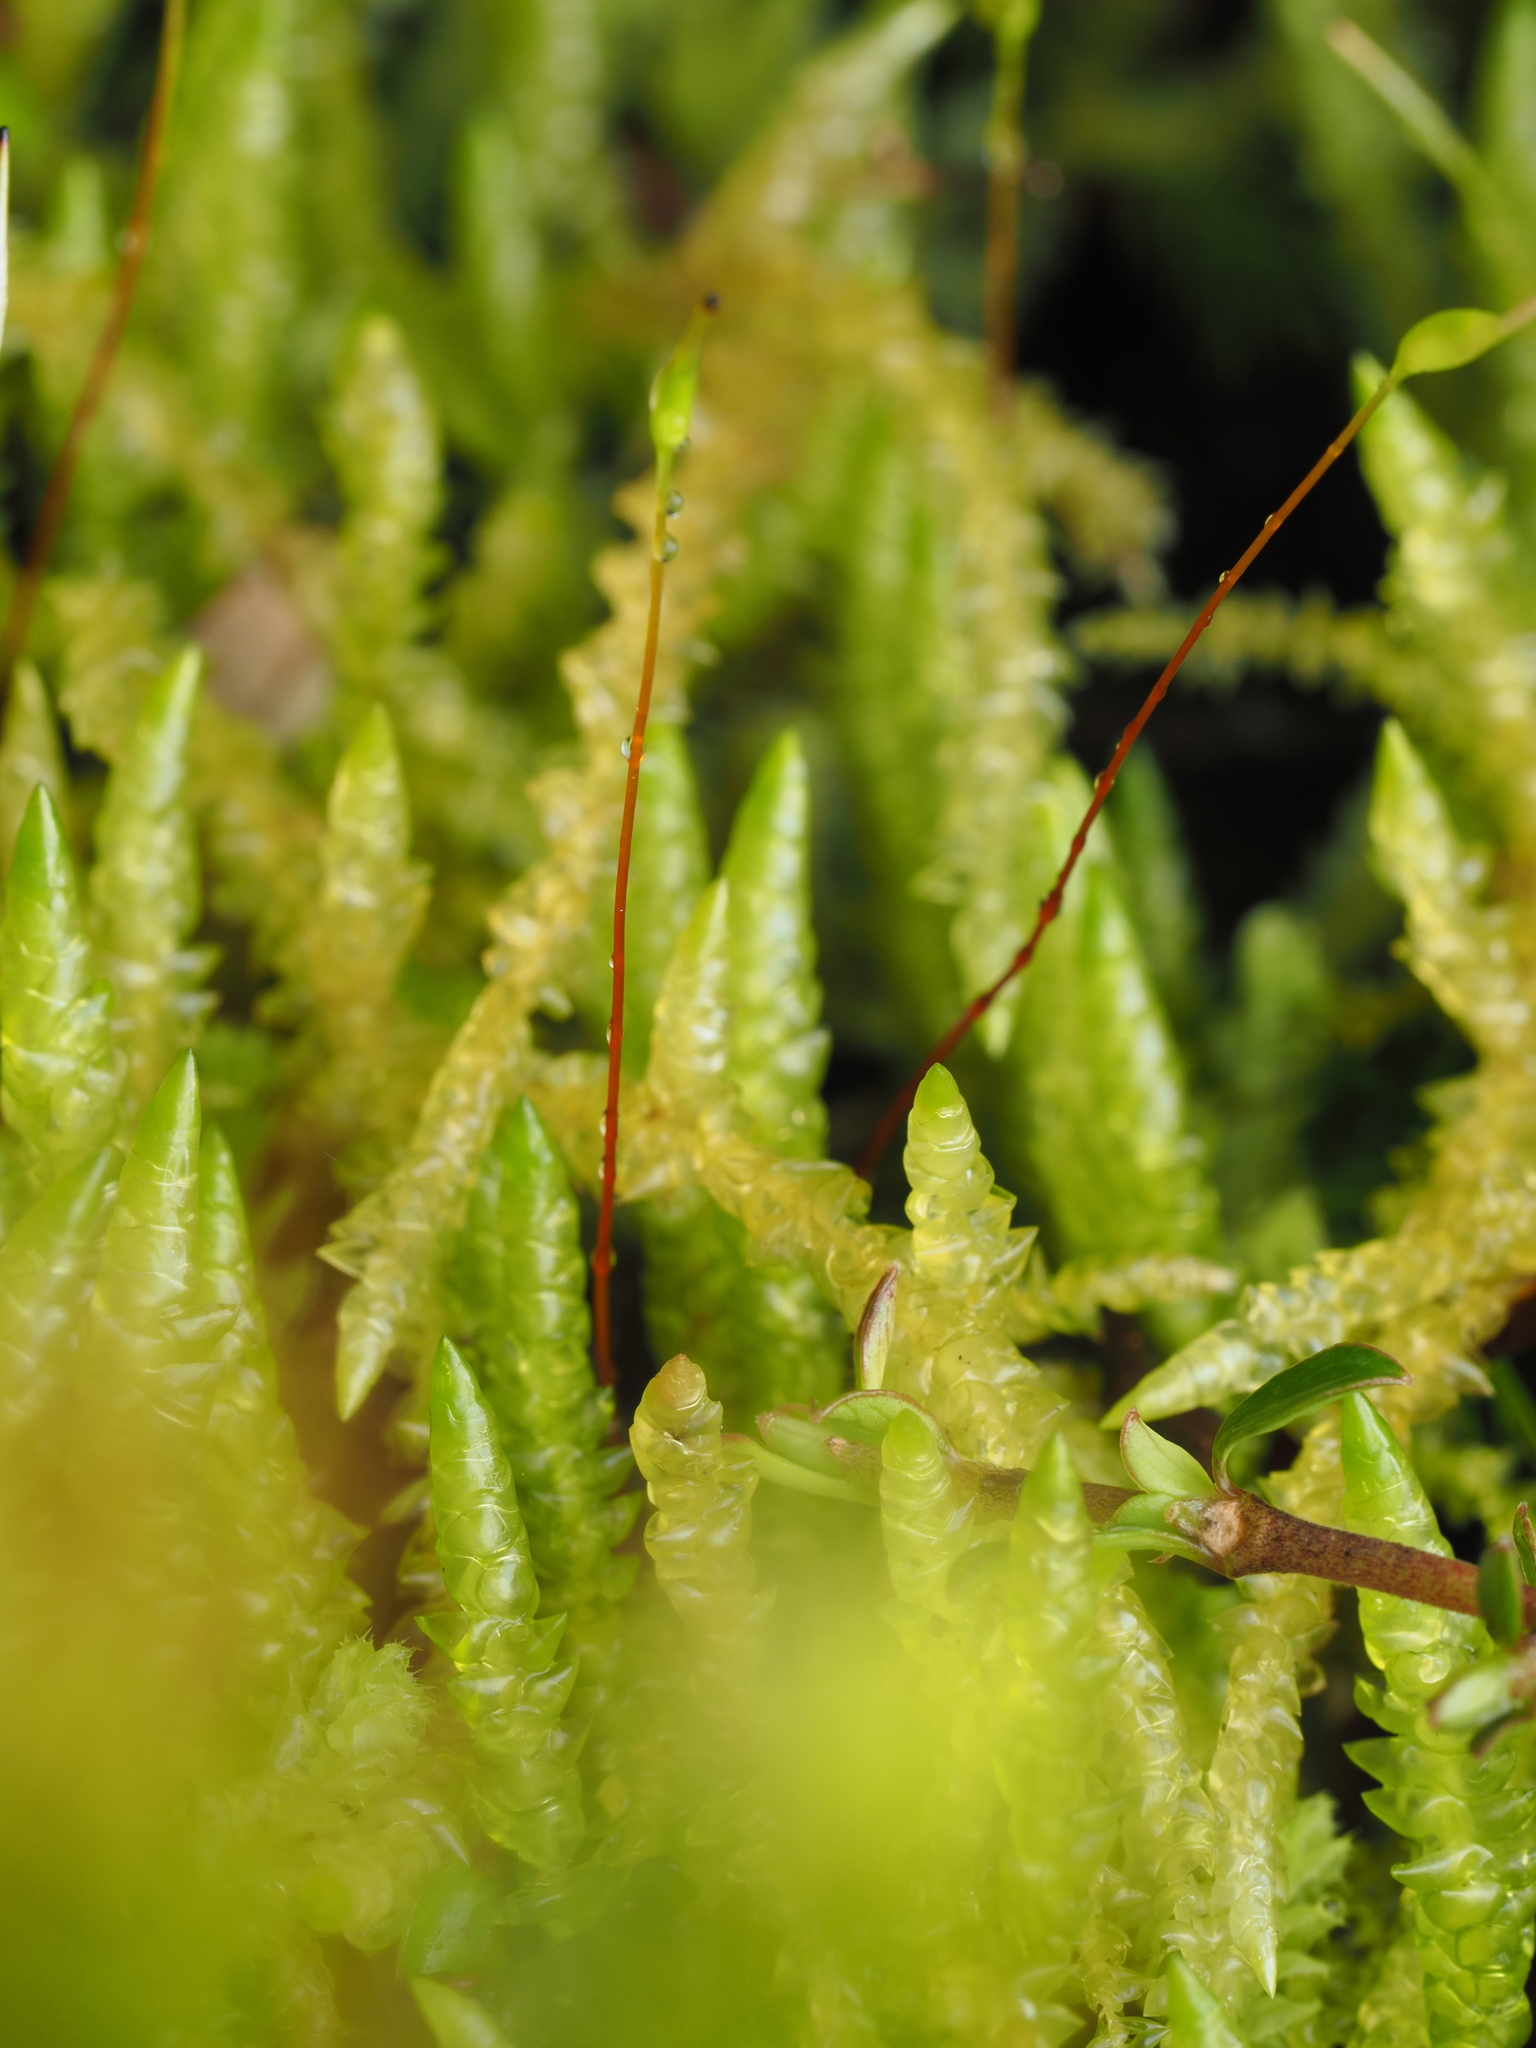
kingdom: Plantae
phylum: Bryophyta
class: Bryopsida
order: Hypnales
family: Acrocladiaceae
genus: Acrocladium
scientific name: Acrocladium chlamydophyllum
